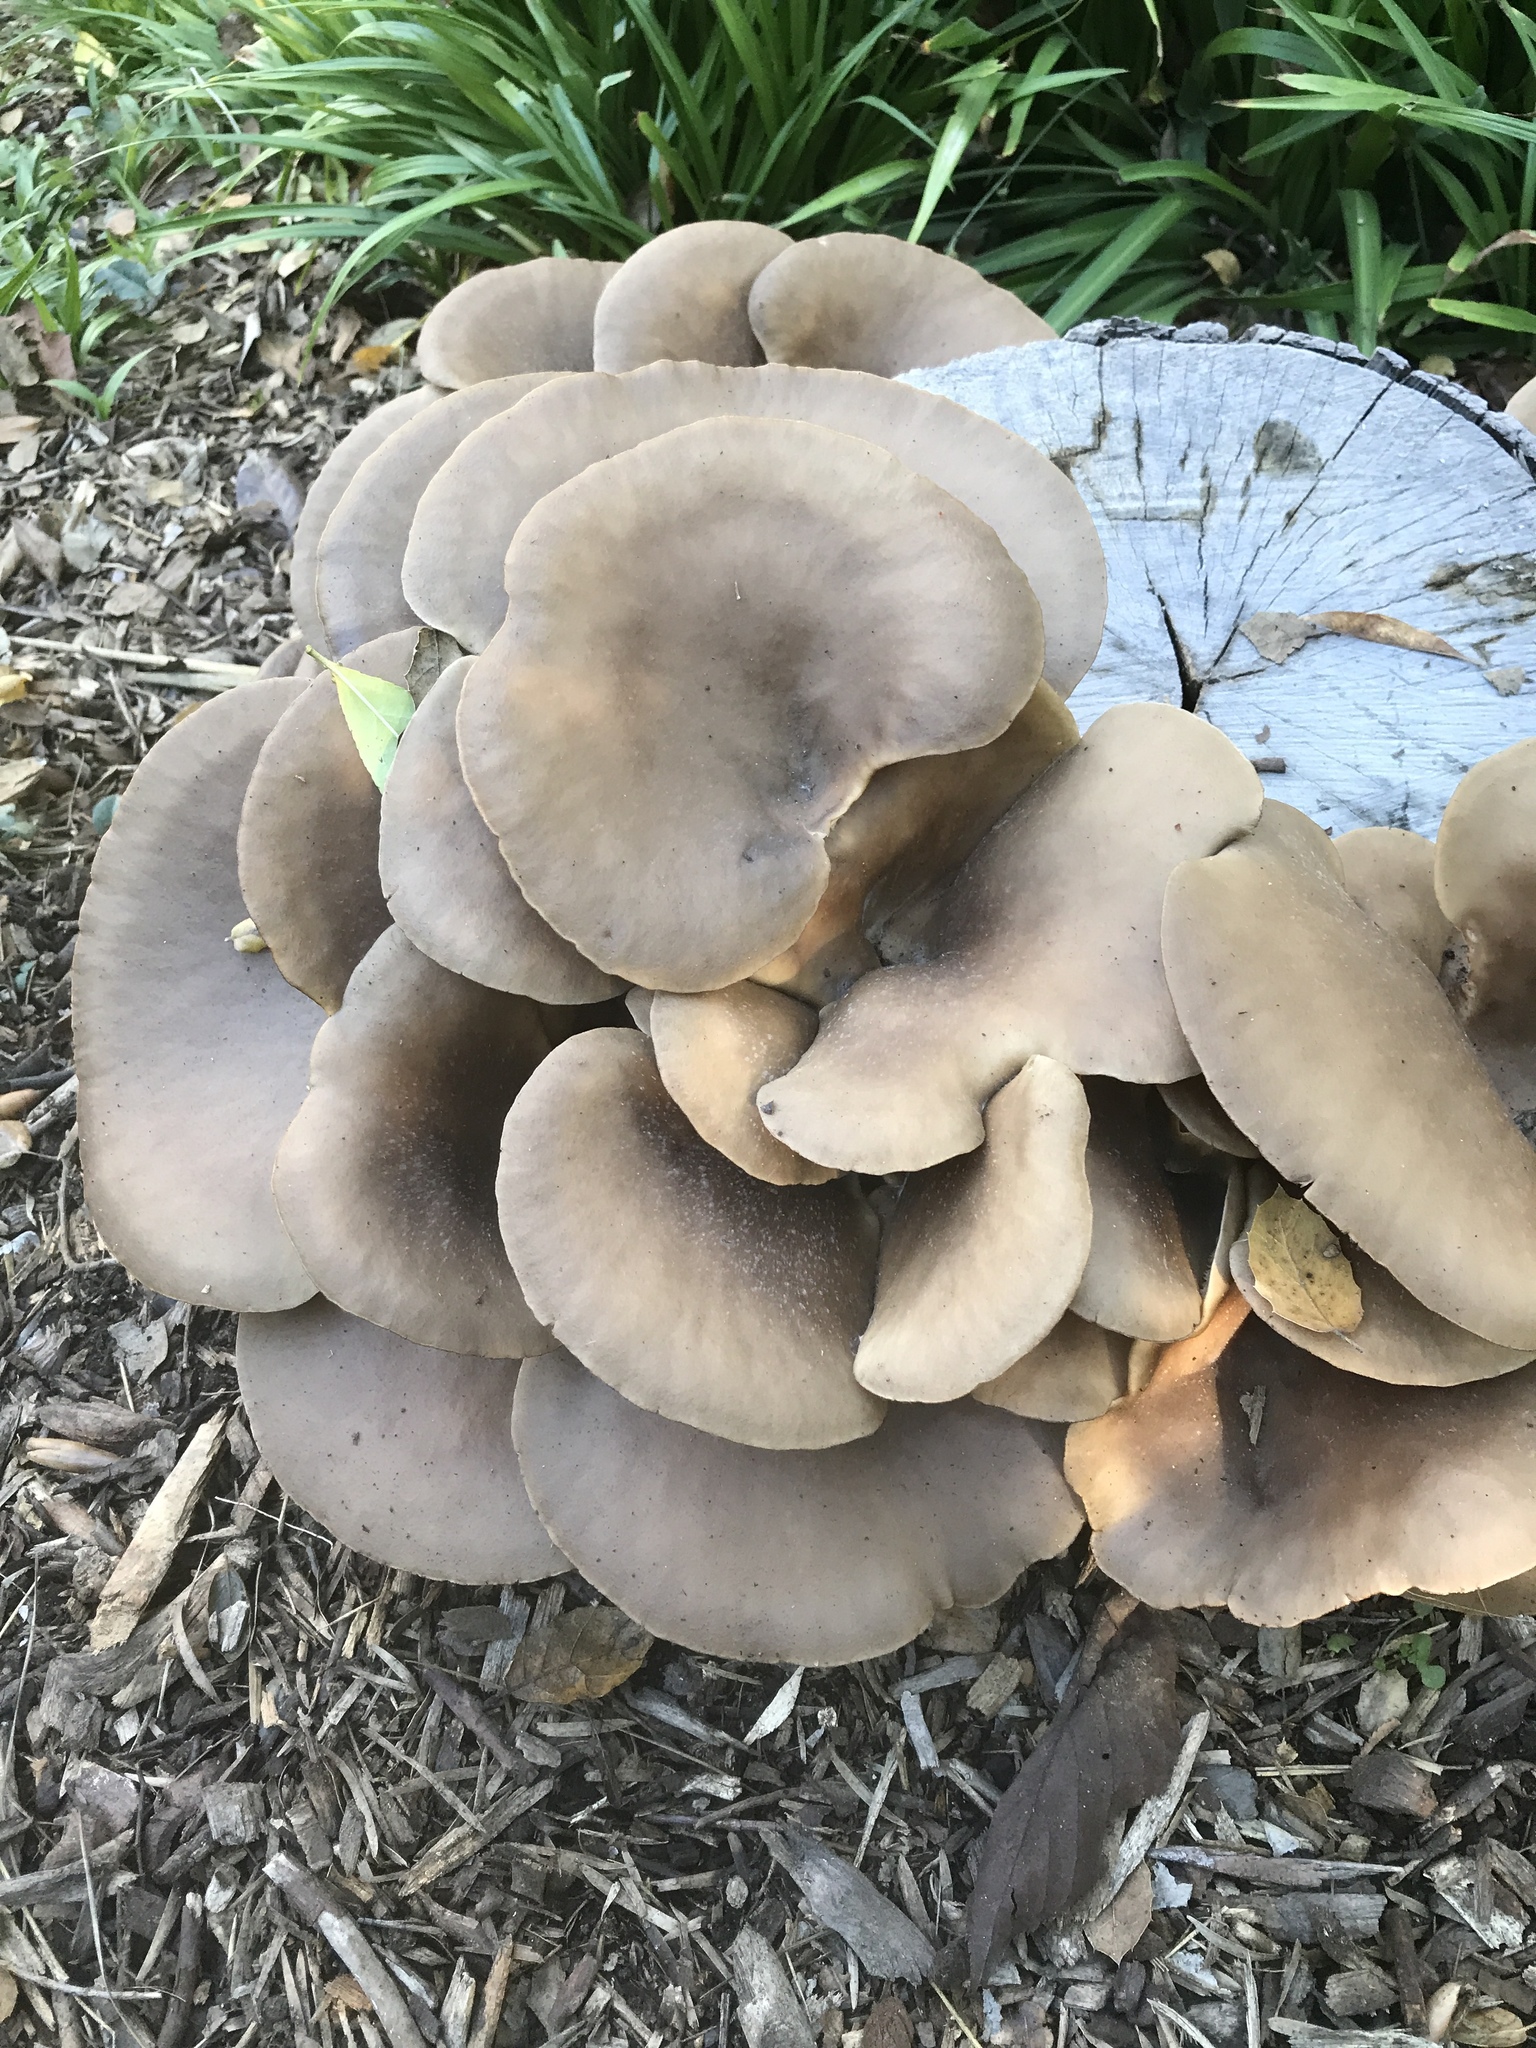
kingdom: Fungi
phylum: Basidiomycota
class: Agaricomycetes
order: Agaricales
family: Pleurotaceae
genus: Pleurotus
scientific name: Pleurotus ostreatus
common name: Oyster mushroom
